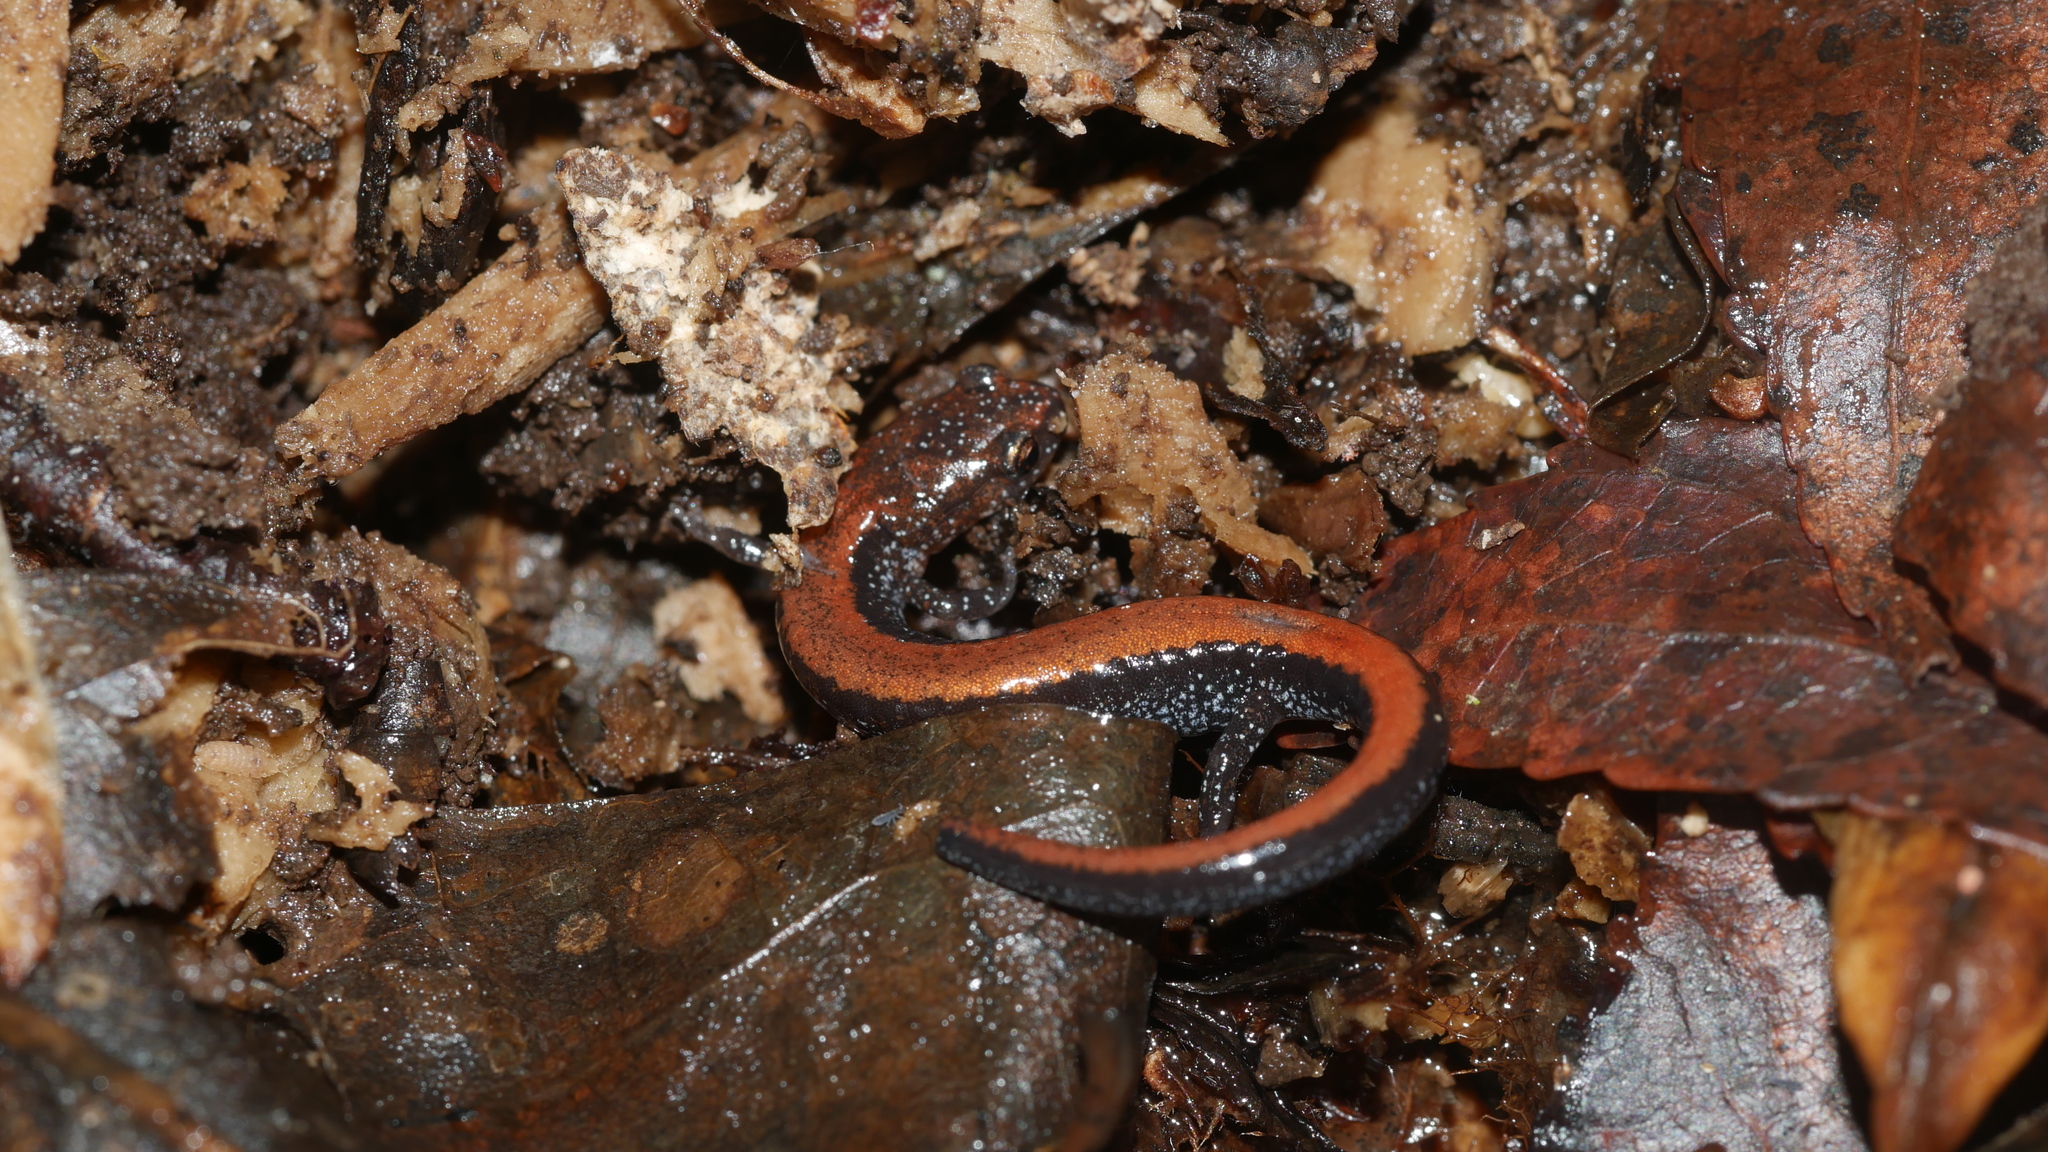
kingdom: Animalia
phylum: Chordata
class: Amphibia
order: Caudata
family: Plethodontidae
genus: Plethodon
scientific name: Plethodon cinereus
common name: Redback salamander
